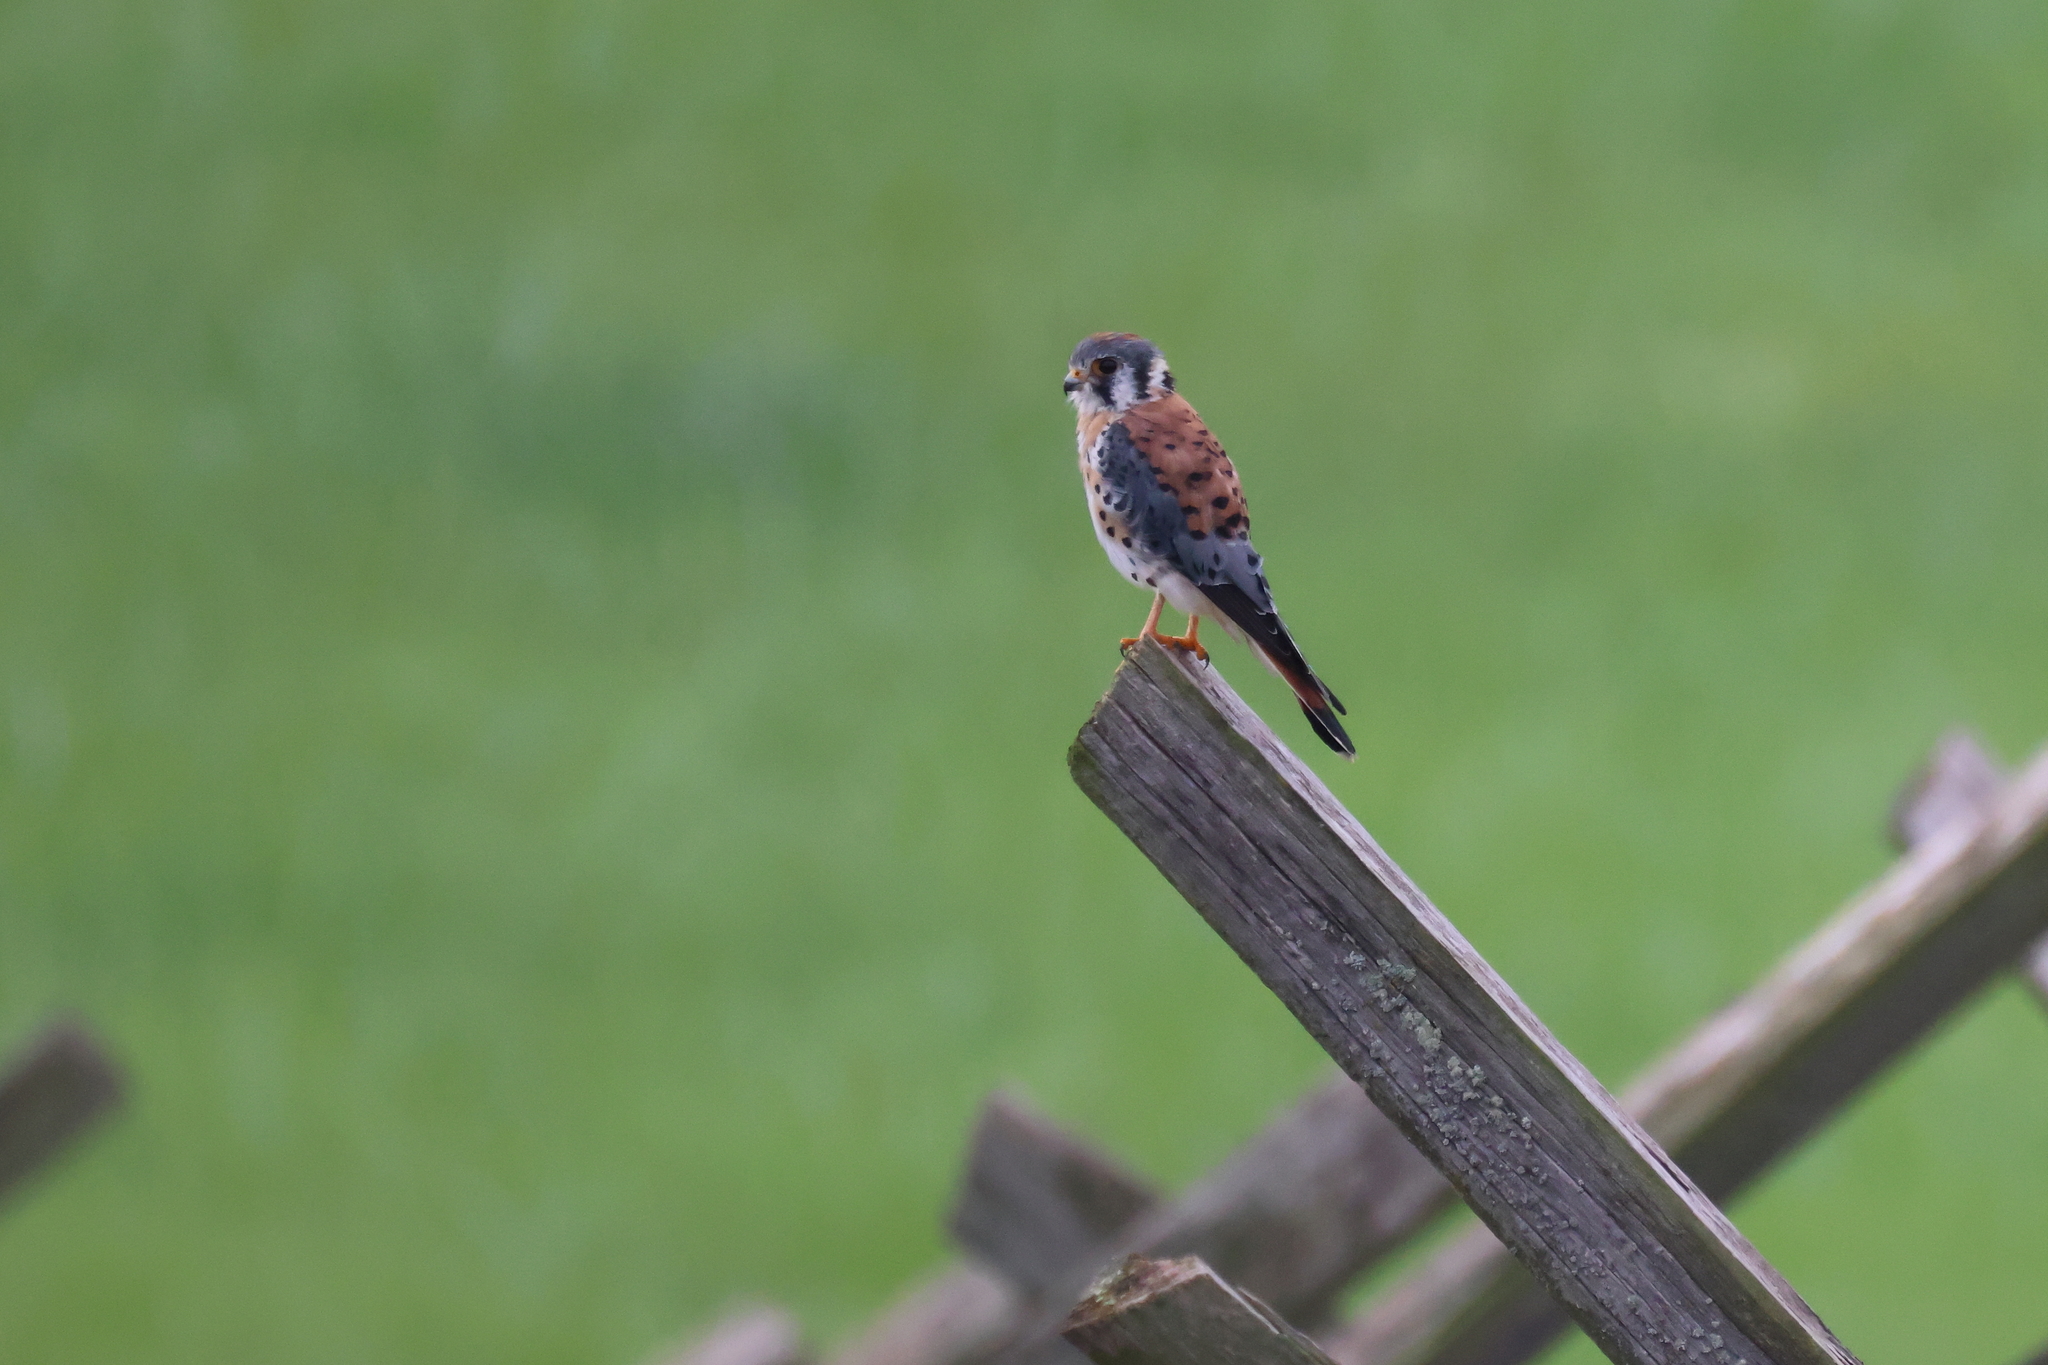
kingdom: Animalia
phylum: Chordata
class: Aves
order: Falconiformes
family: Falconidae
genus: Falco
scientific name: Falco sparverius
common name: American kestrel
